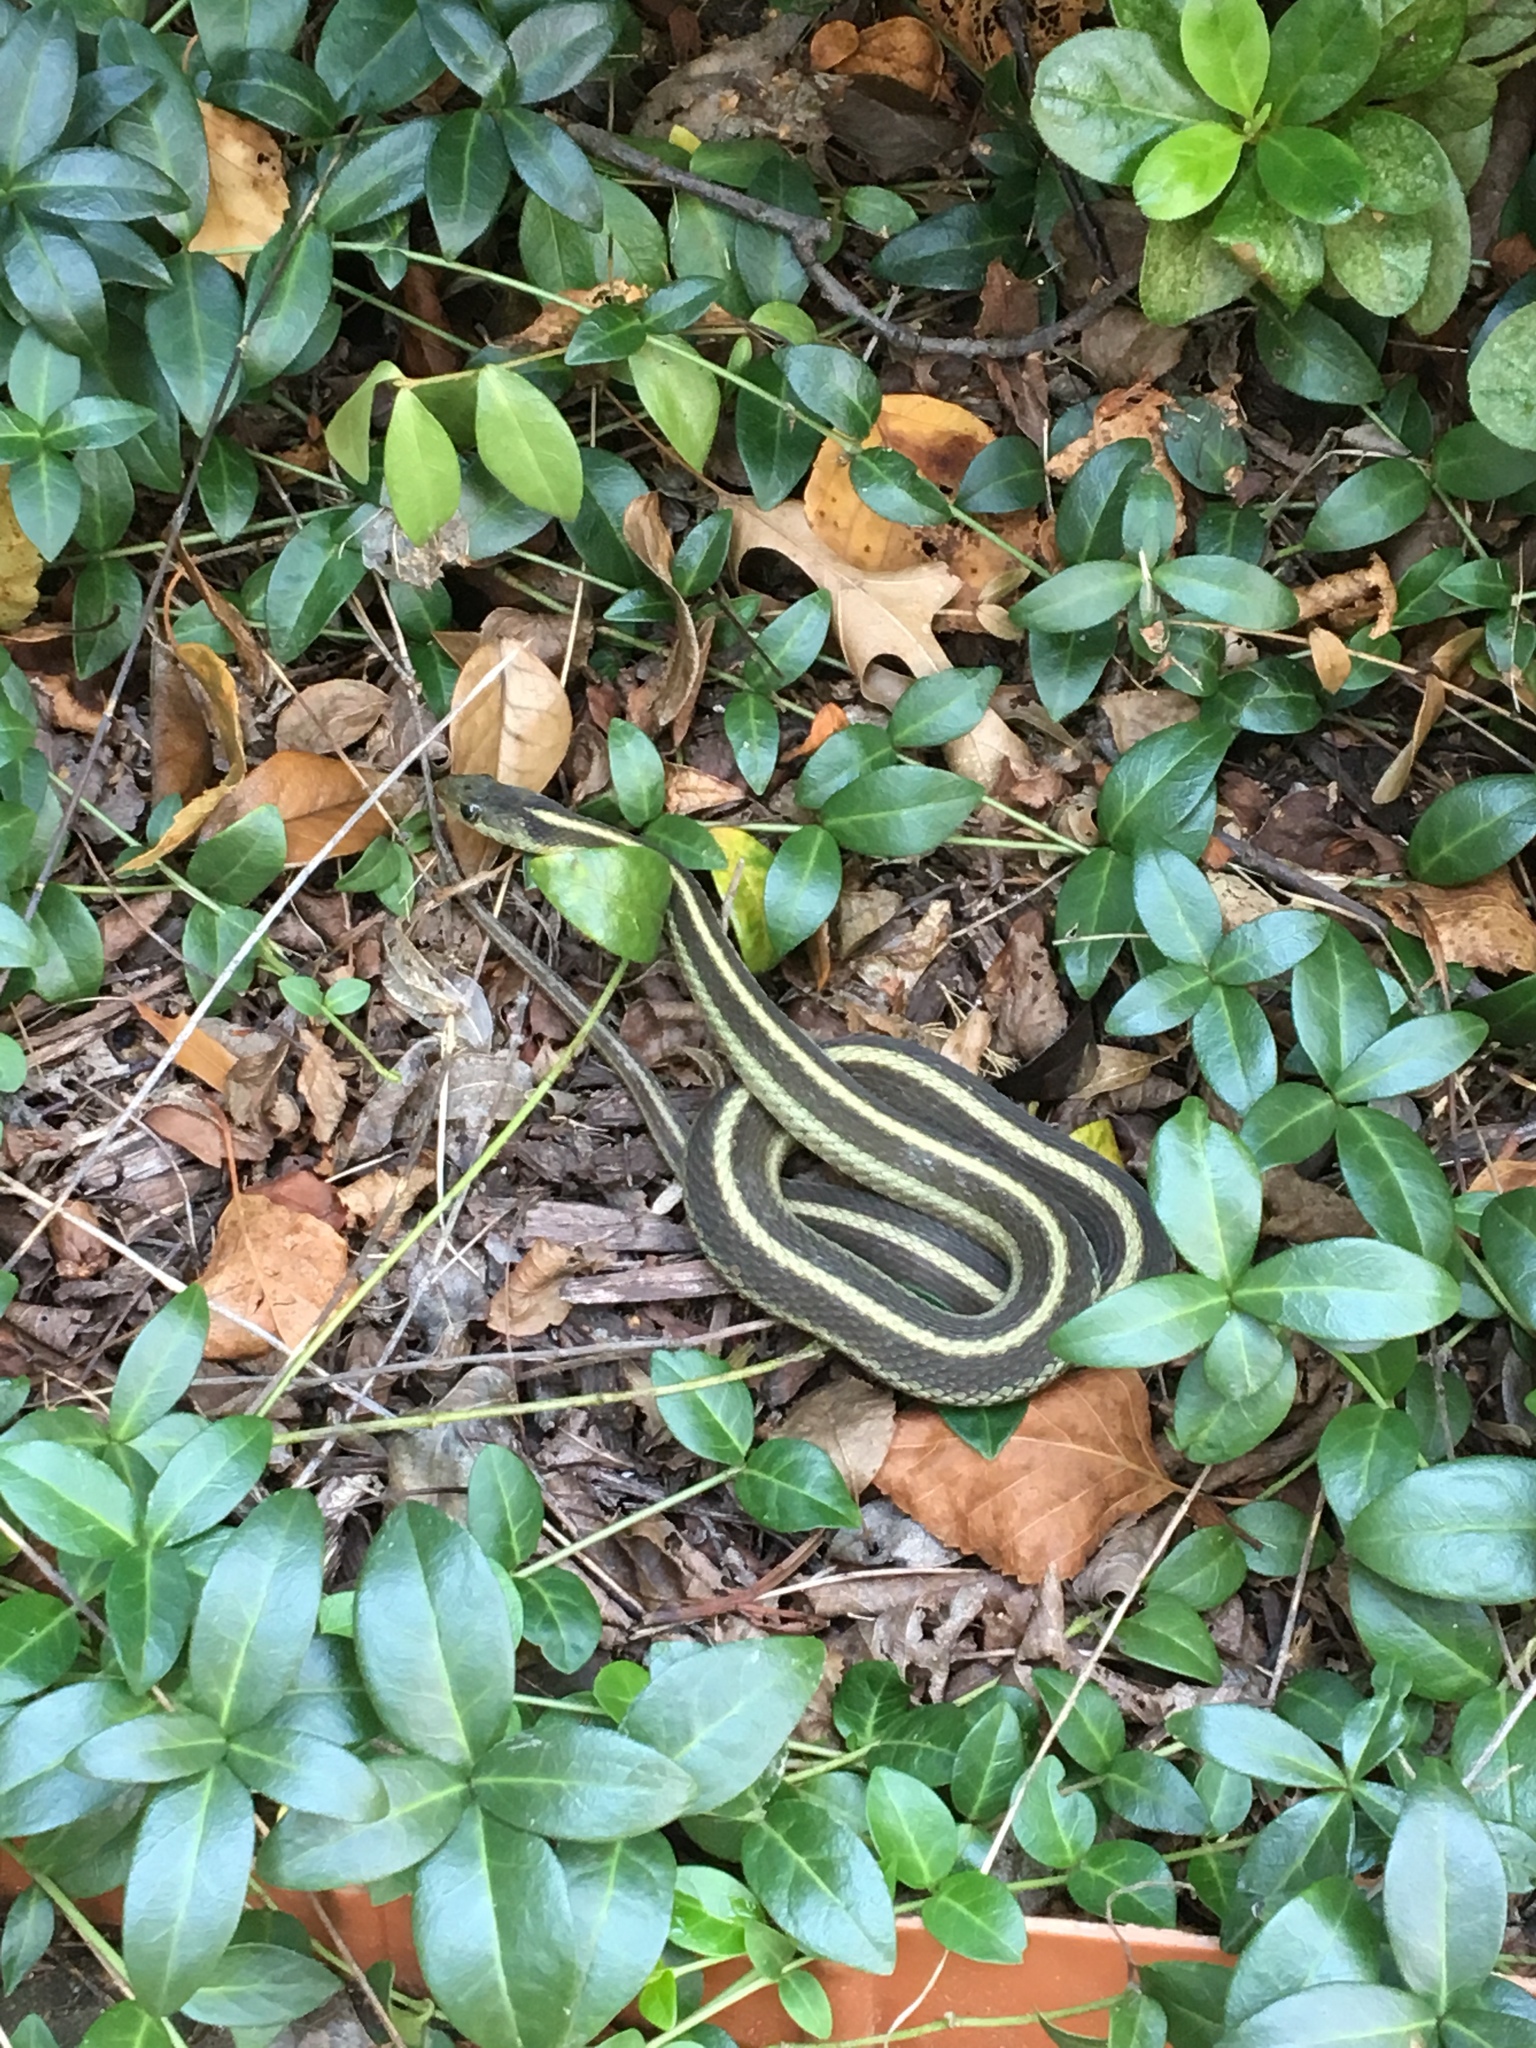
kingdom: Animalia
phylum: Chordata
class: Squamata
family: Colubridae
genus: Thamnophis
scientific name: Thamnophis sirtalis
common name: Common garter snake
